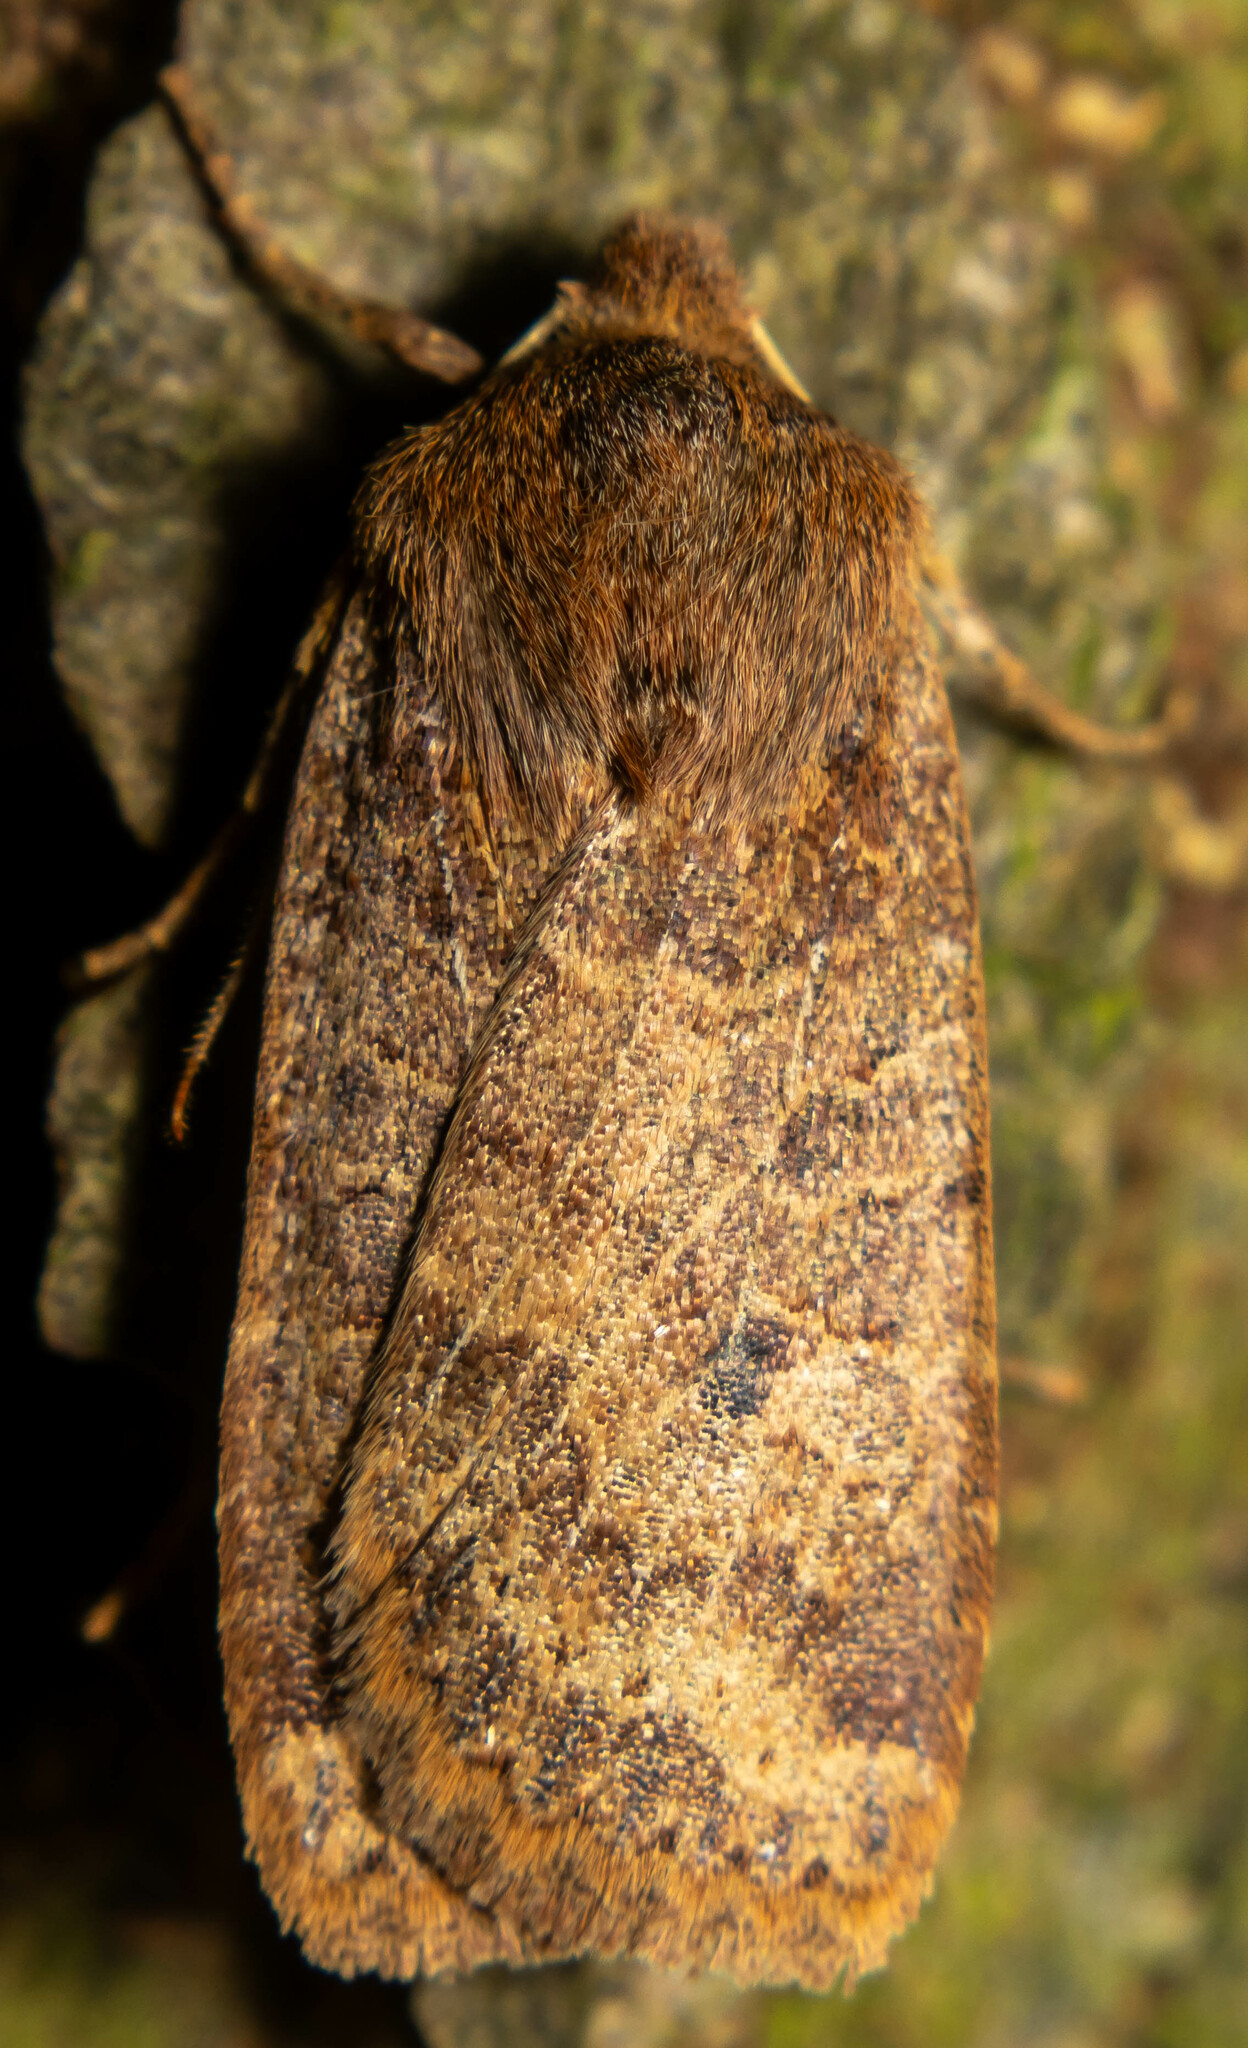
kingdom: Animalia
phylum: Arthropoda
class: Insecta
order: Lepidoptera
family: Noctuidae
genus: Conistra
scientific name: Conistra vaccinii
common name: Chestnut
